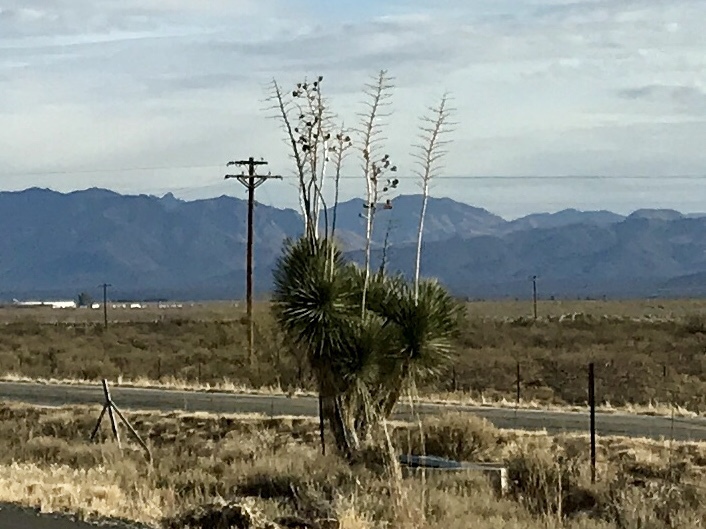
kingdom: Plantae
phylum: Tracheophyta
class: Liliopsida
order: Asparagales
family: Asparagaceae
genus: Yucca
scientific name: Yucca elata
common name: Palmella
